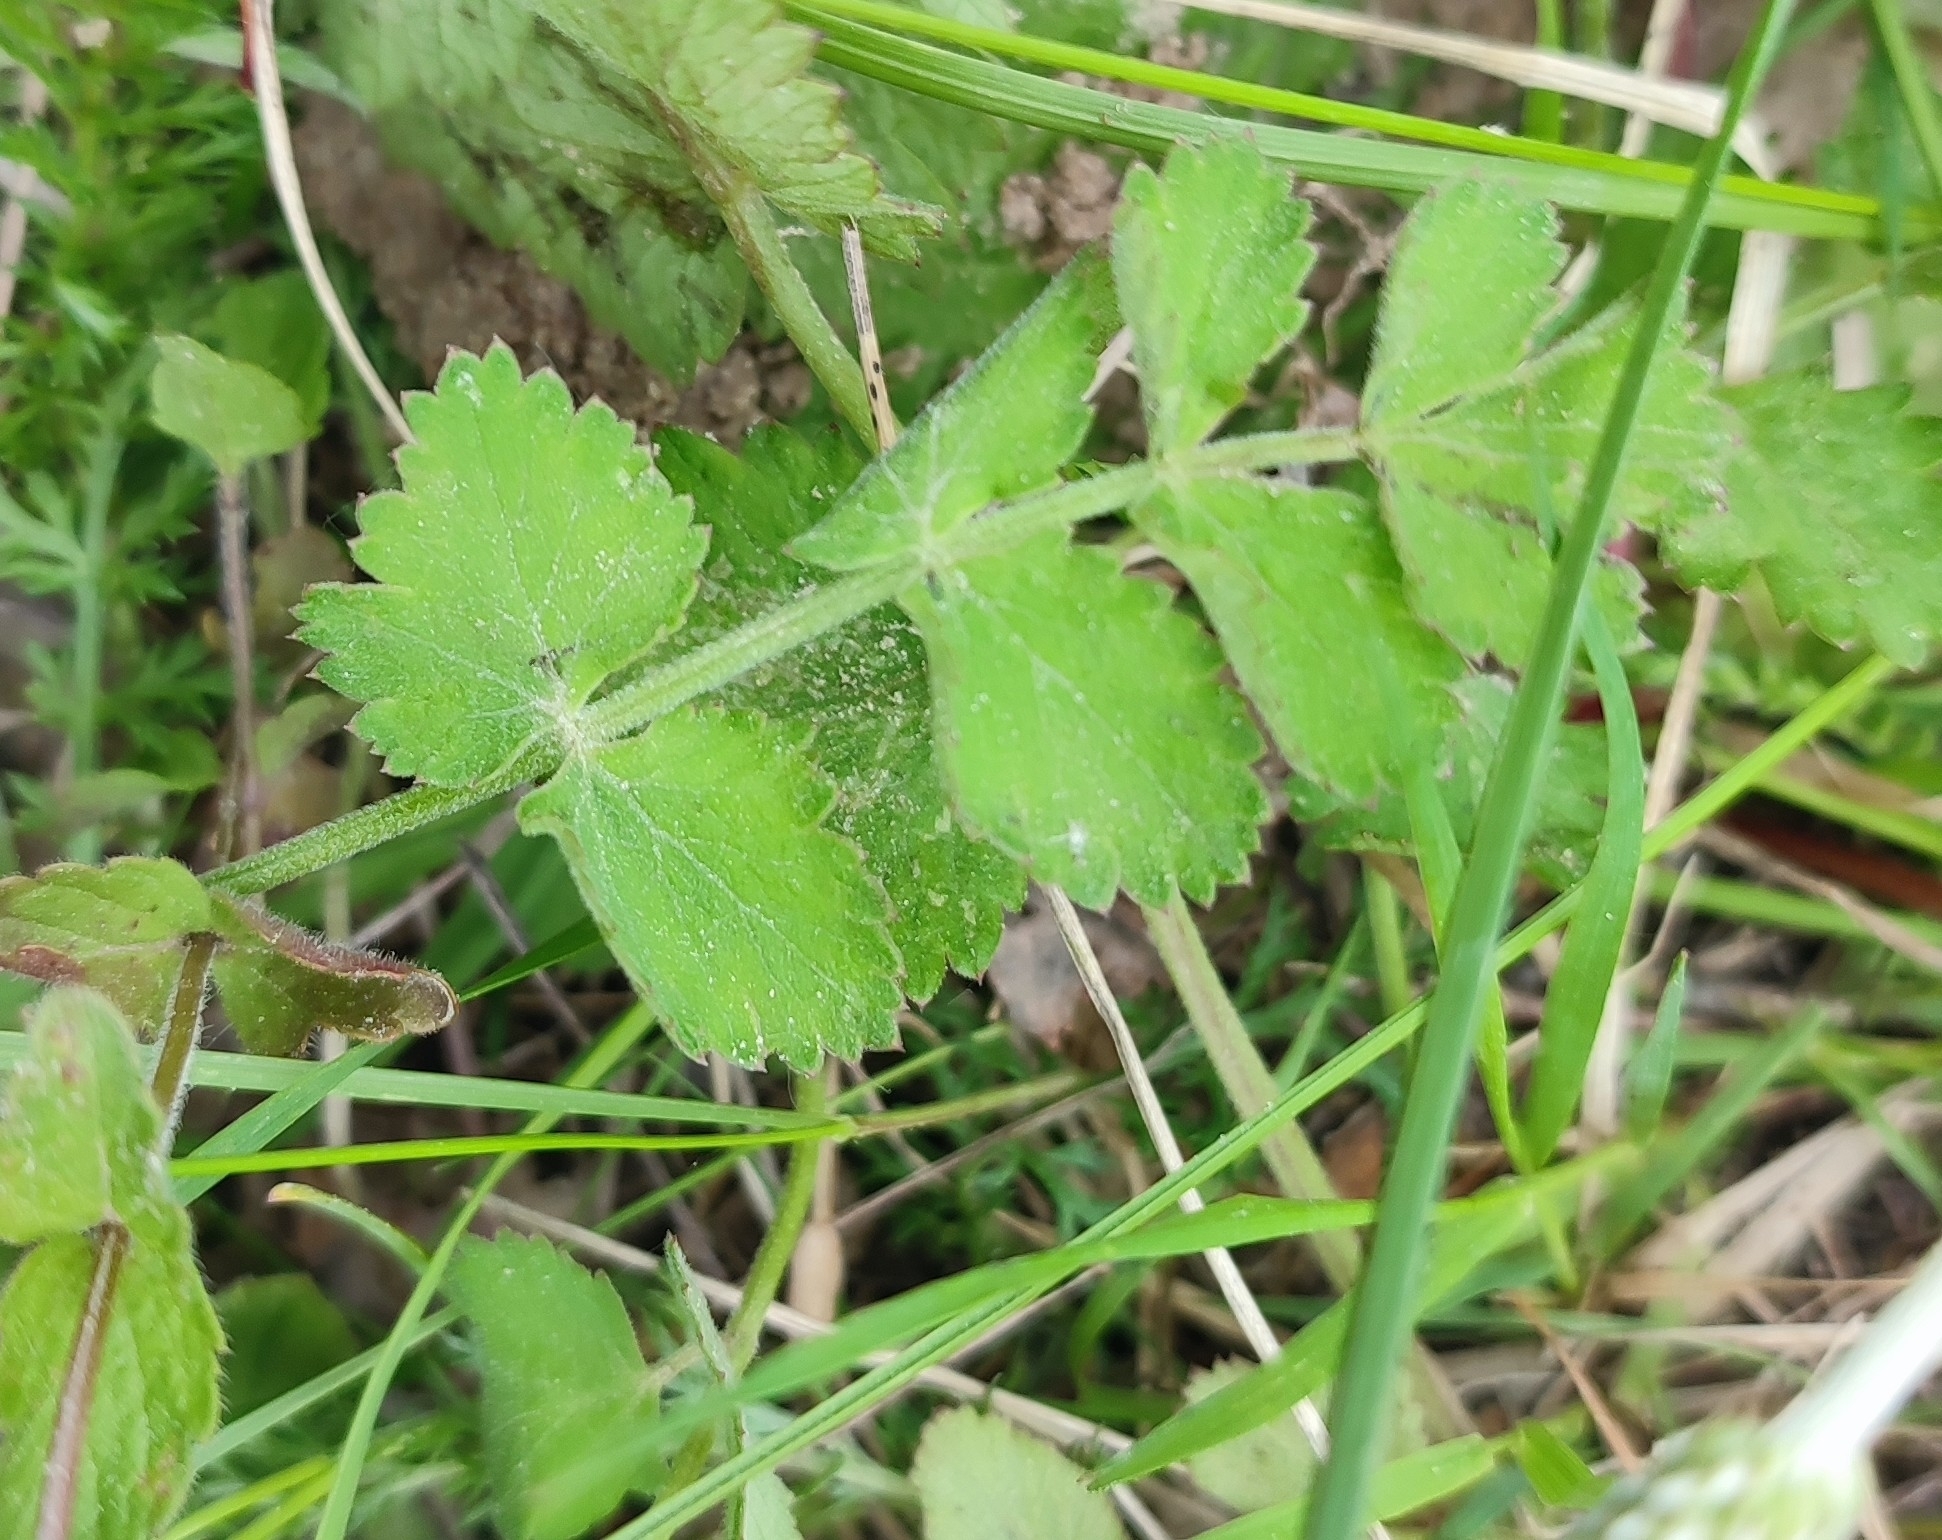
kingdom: Plantae
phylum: Tracheophyta
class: Magnoliopsida
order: Apiales
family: Apiaceae
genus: Pimpinella
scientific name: Pimpinella saxifraga
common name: Burnet-saxifrage
